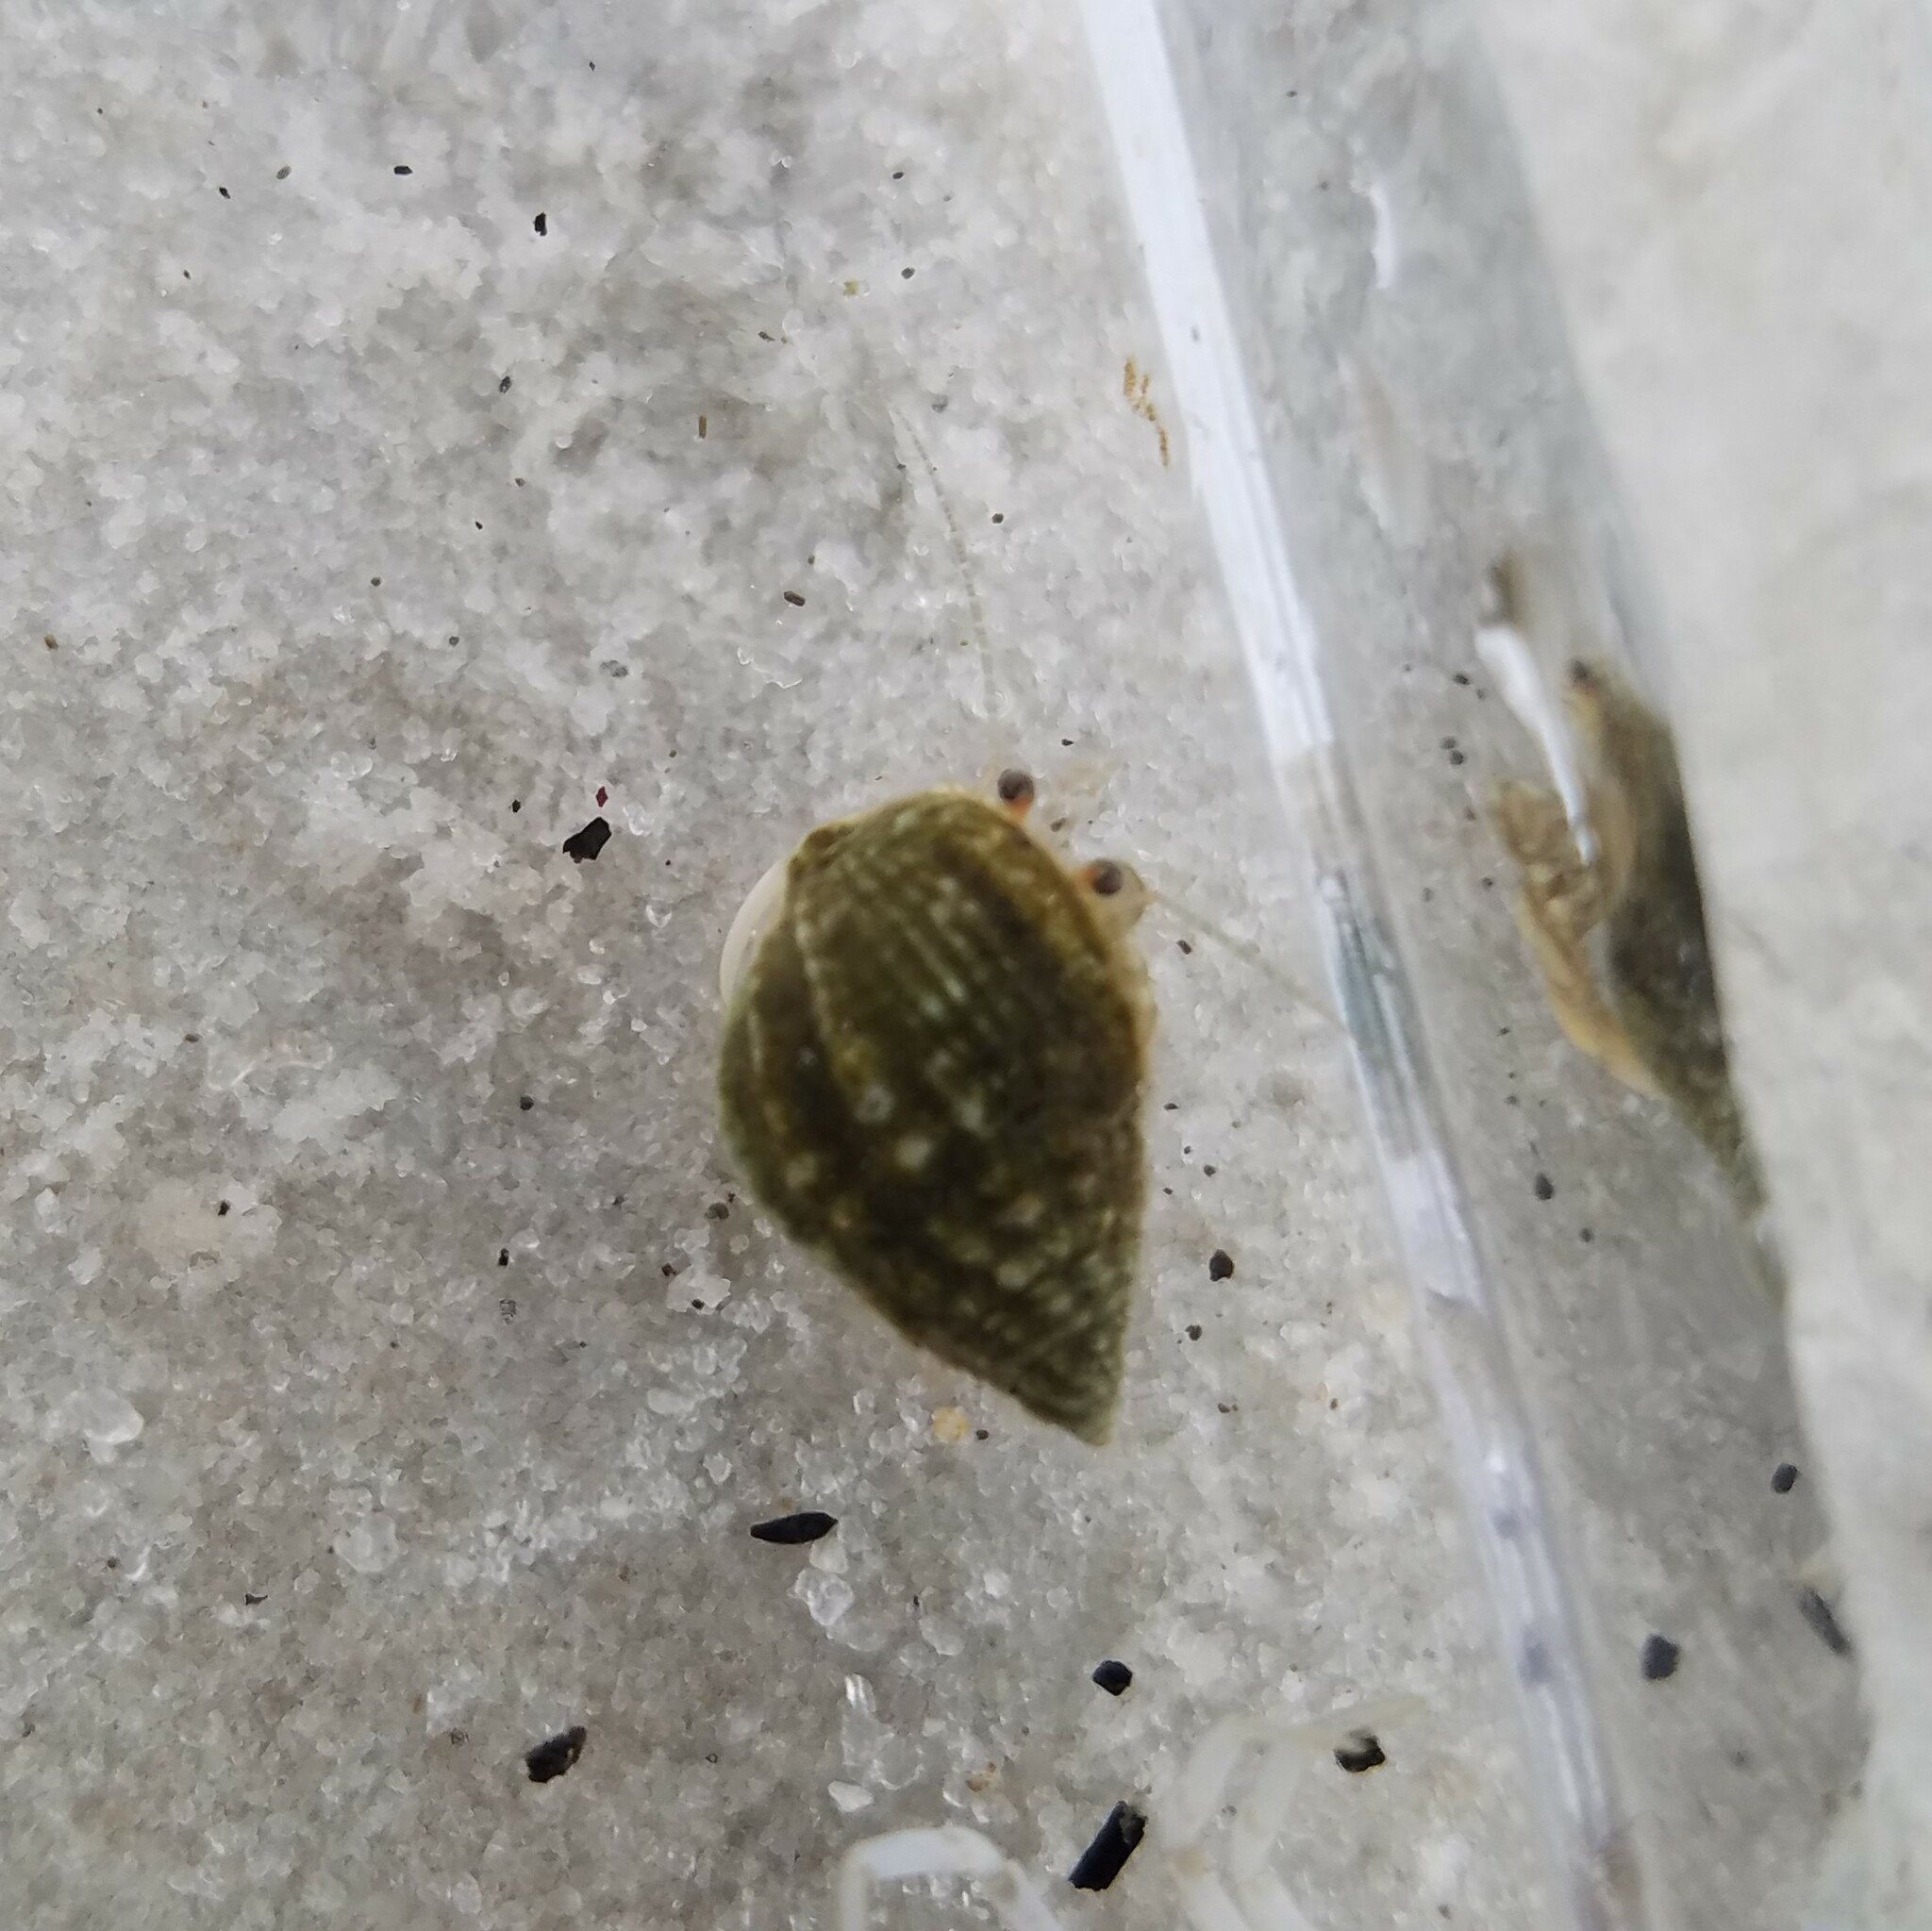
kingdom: Animalia
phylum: Arthropoda
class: Malacostraca
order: Decapoda
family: Paguridae
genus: Pagurus
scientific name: Pagurus longicarpus
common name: Long-armed hermit crab
